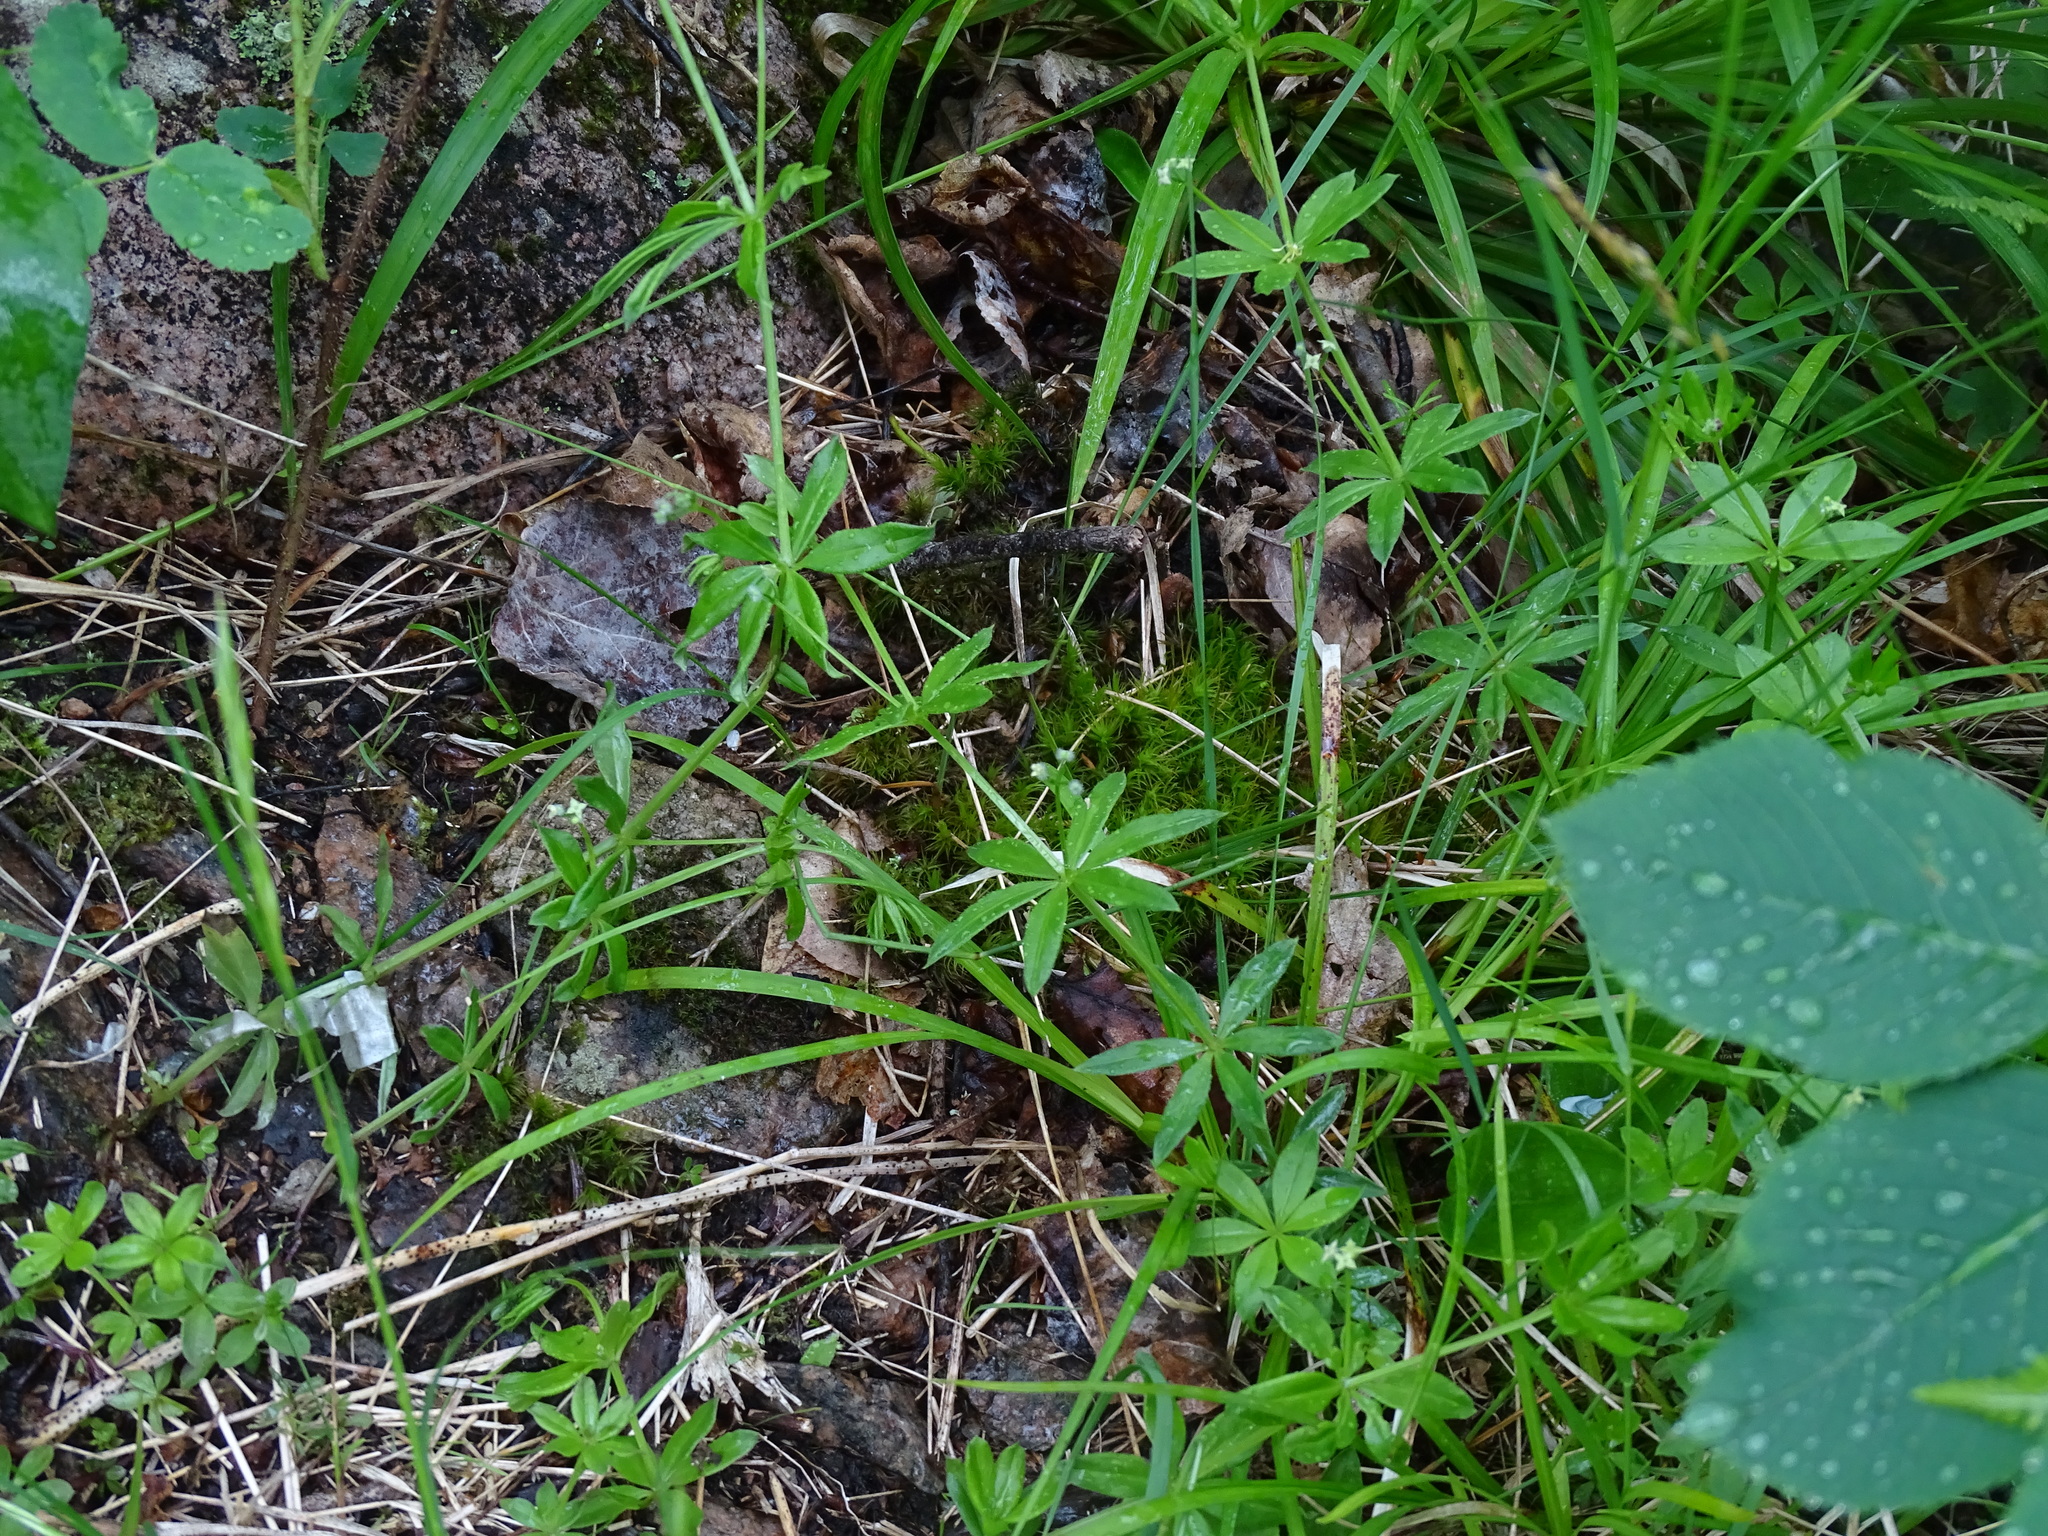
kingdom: Plantae
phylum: Tracheophyta
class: Magnoliopsida
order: Gentianales
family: Rubiaceae
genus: Galium
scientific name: Galium triflorum
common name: Fragrant bedstraw
